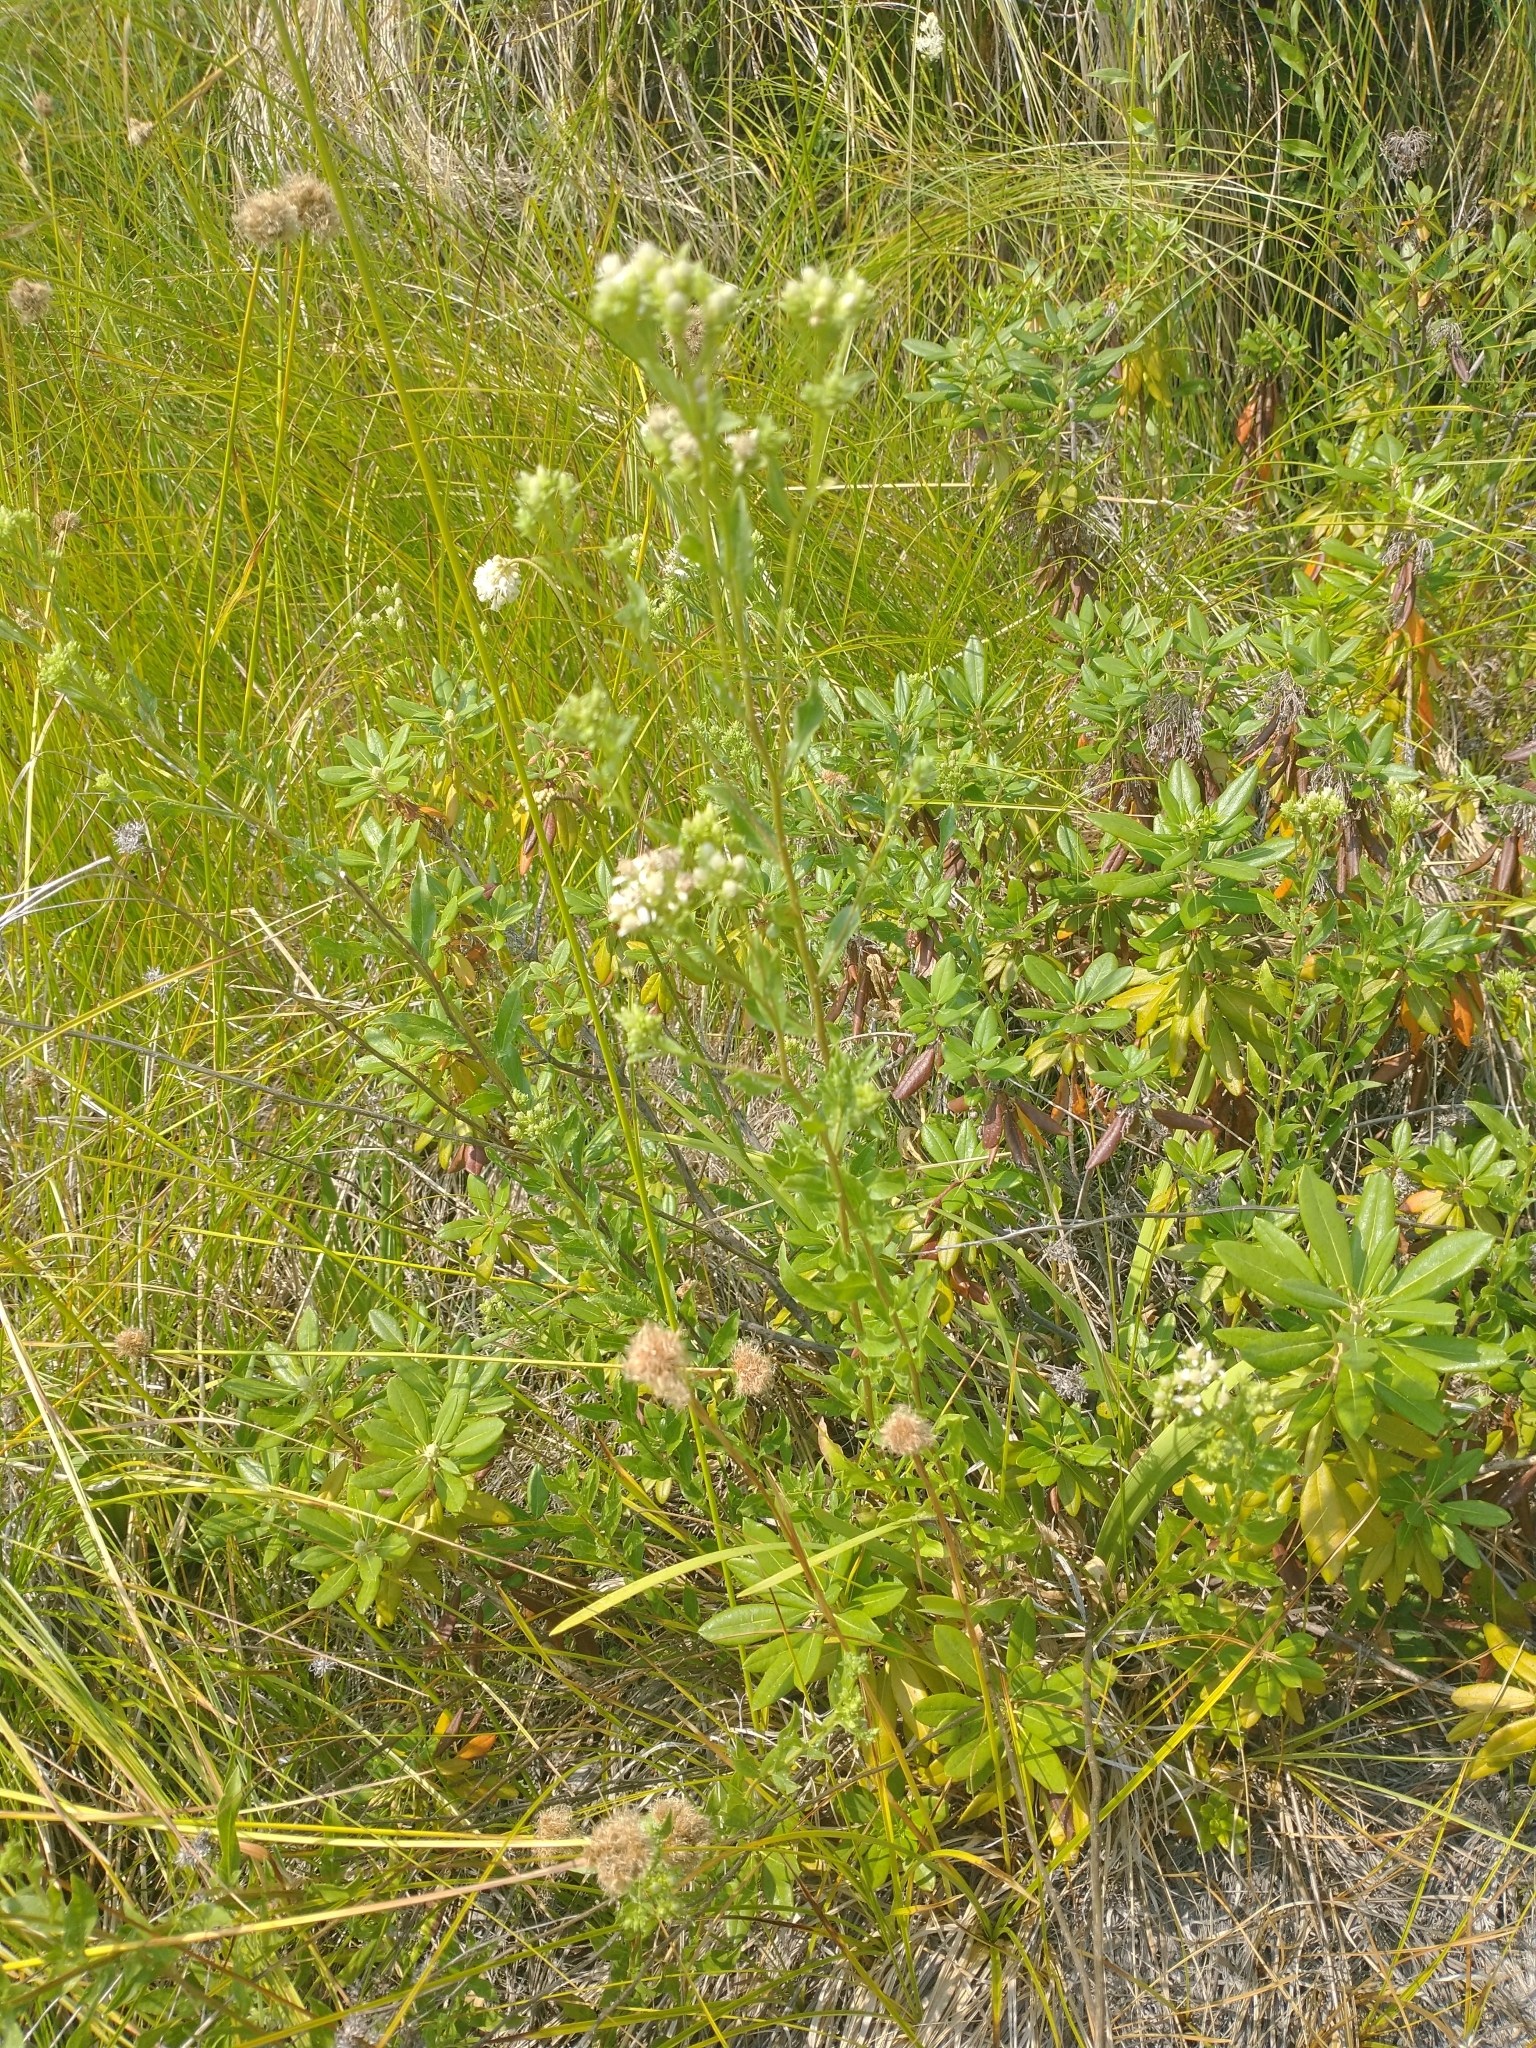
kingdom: Plantae
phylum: Tracheophyta
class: Magnoliopsida
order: Asterales
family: Asteraceae
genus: Sericocarpus
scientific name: Sericocarpus oregonensis
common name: Oregon white-top aster
